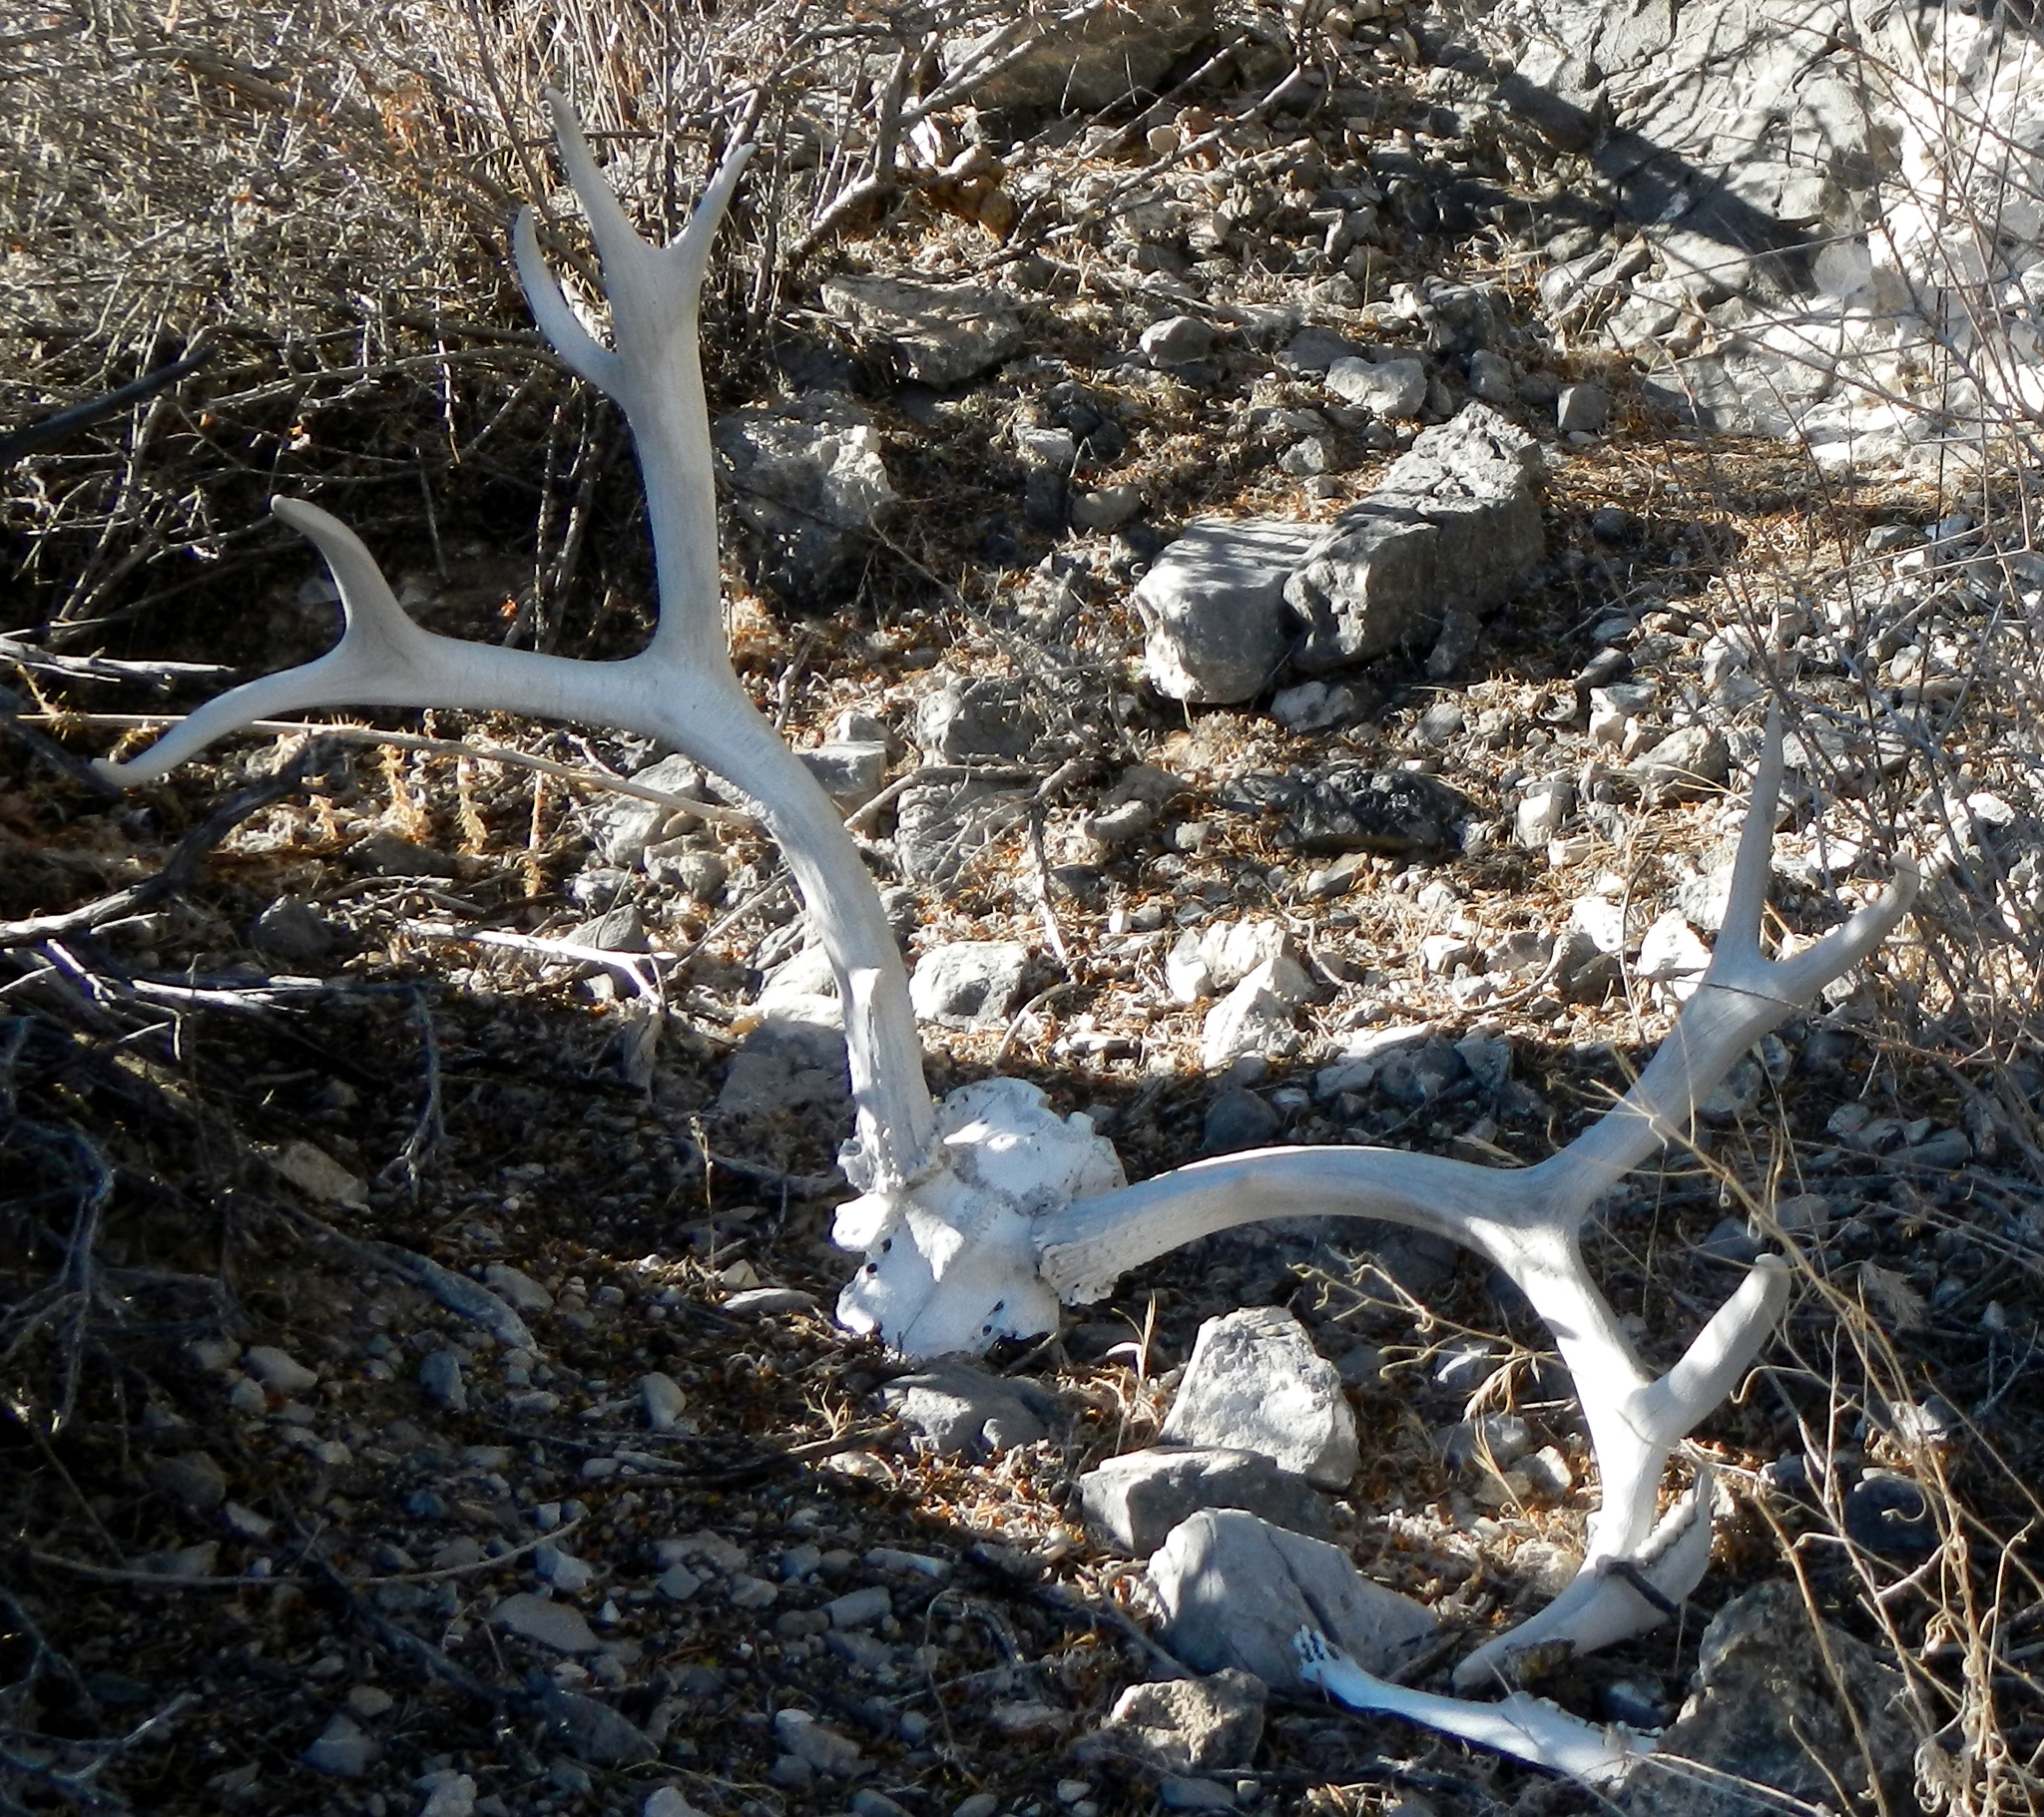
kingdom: Animalia
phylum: Chordata
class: Mammalia
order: Artiodactyla
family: Cervidae
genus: Odocoileus
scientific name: Odocoileus hemionus
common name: Mule deer
